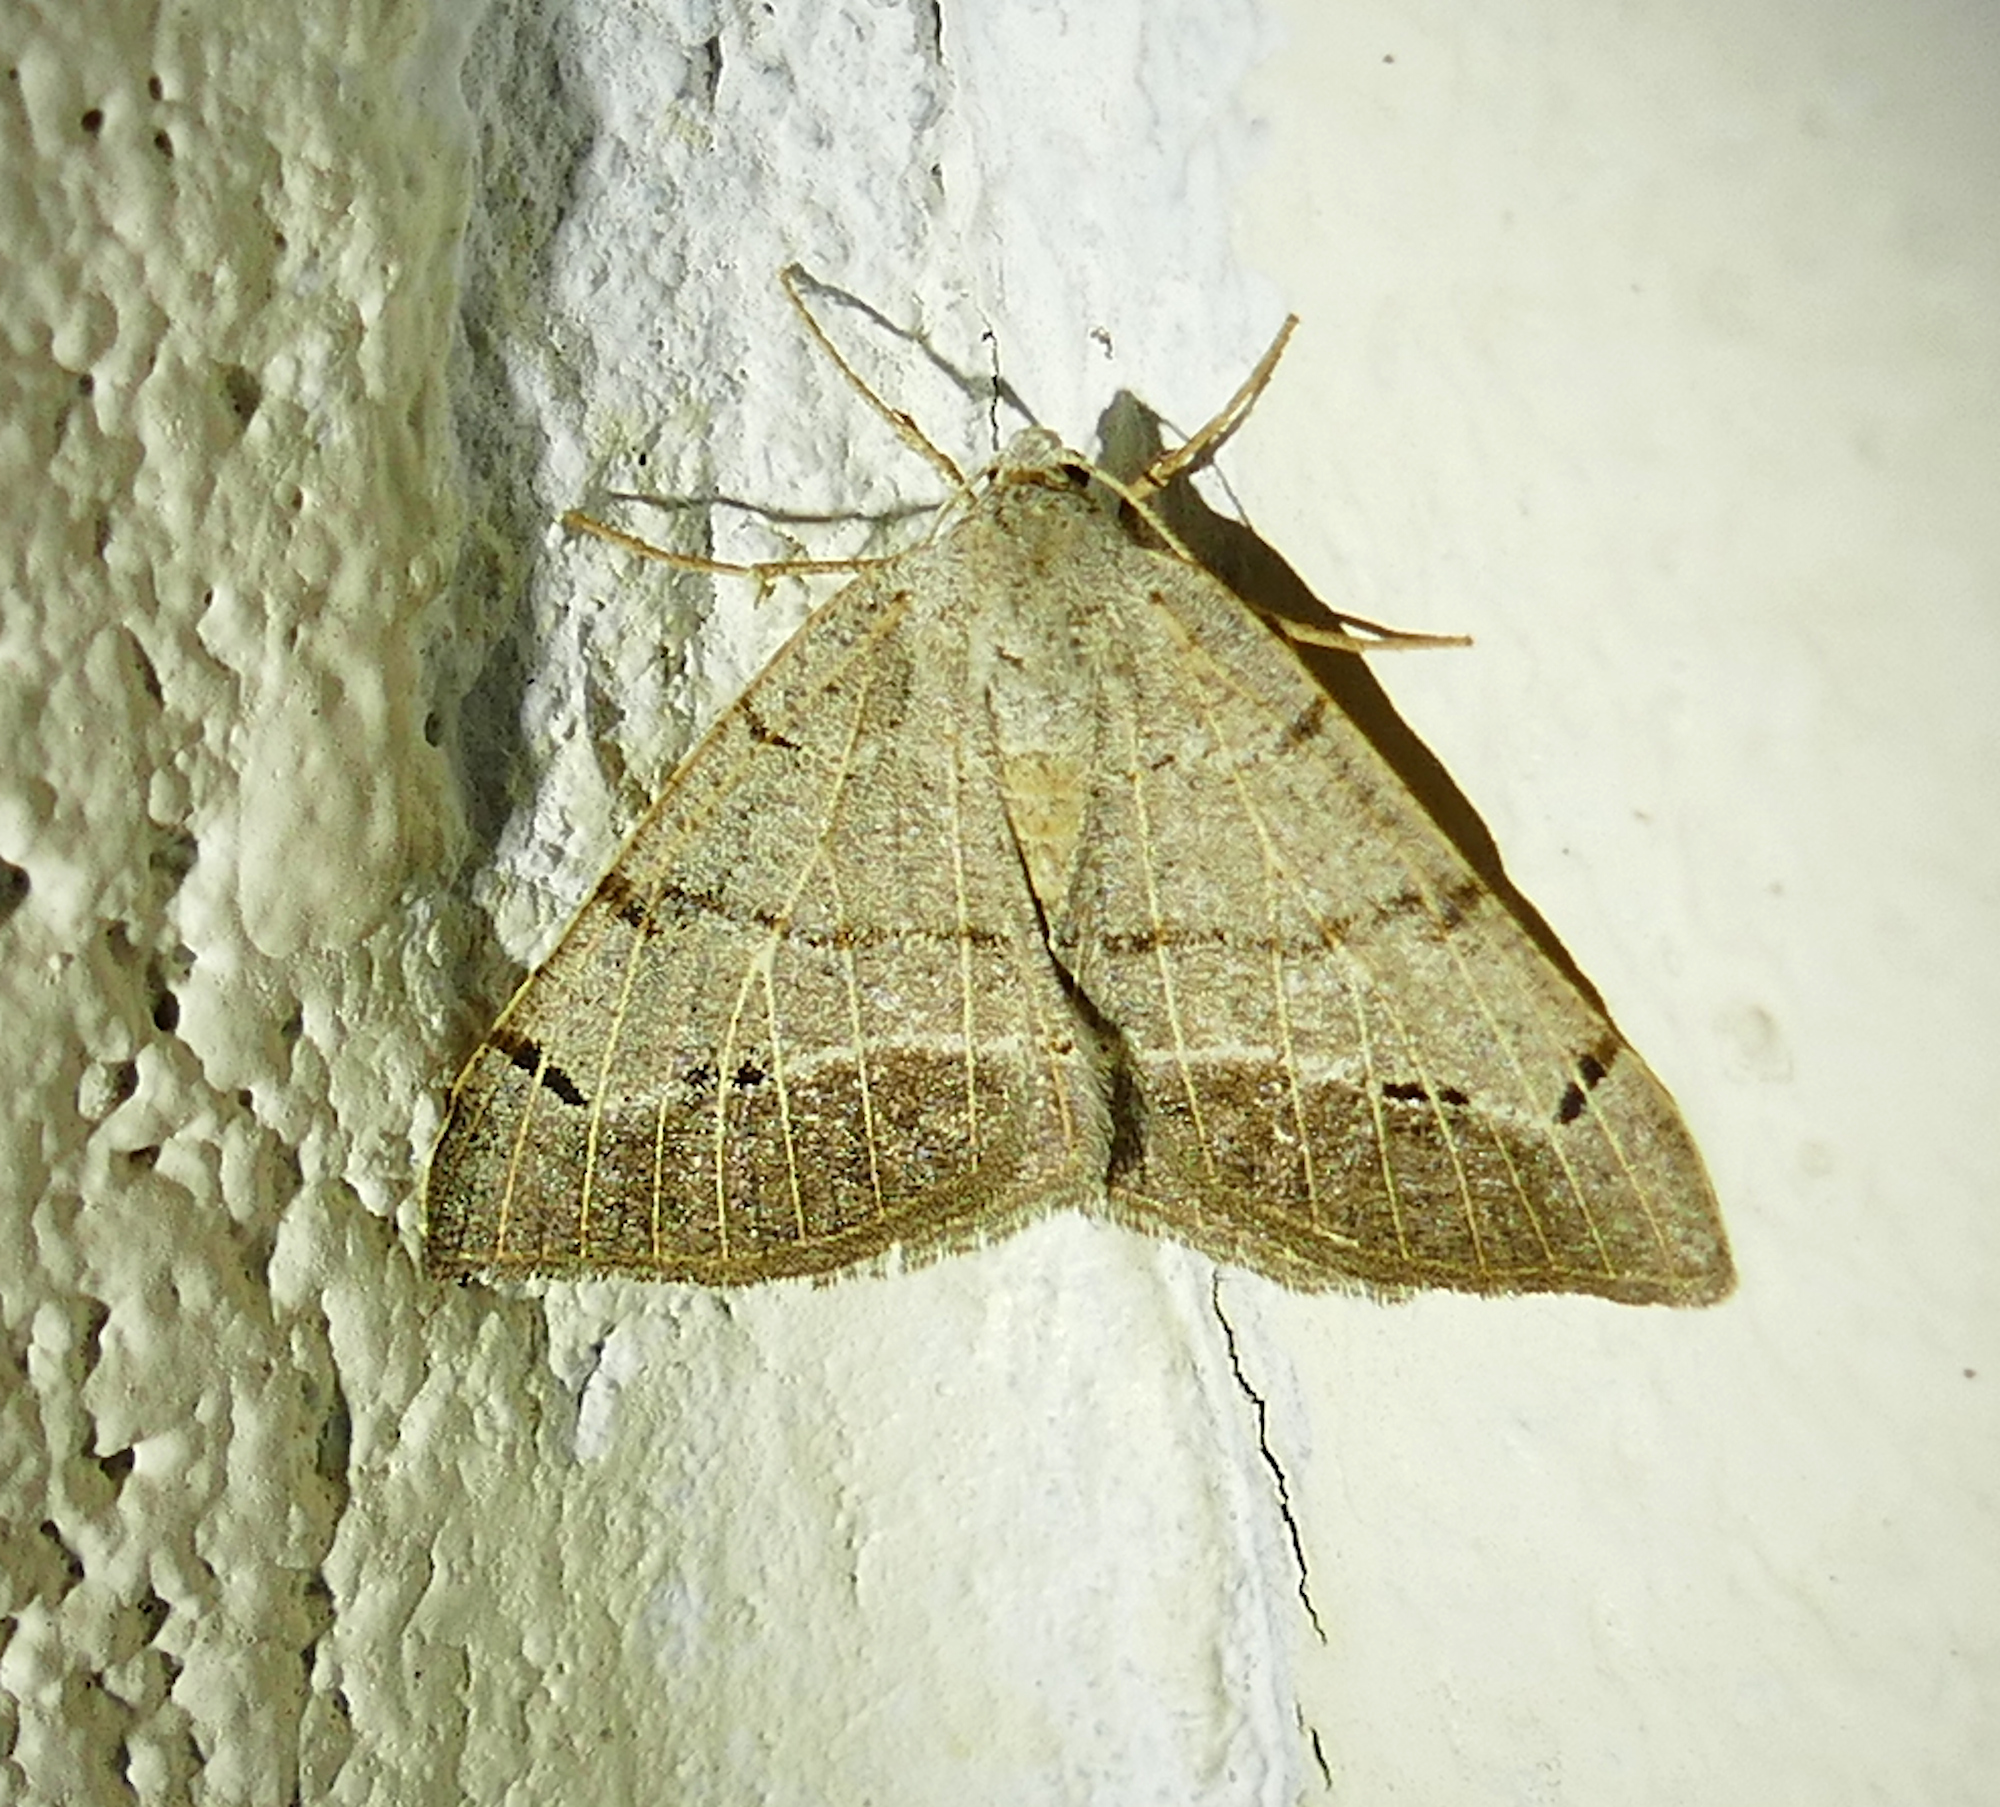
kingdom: Animalia
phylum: Arthropoda
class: Insecta
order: Lepidoptera
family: Geometridae
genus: Isturgia
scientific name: Isturgia dislocaria
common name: Pale-viened enconista
